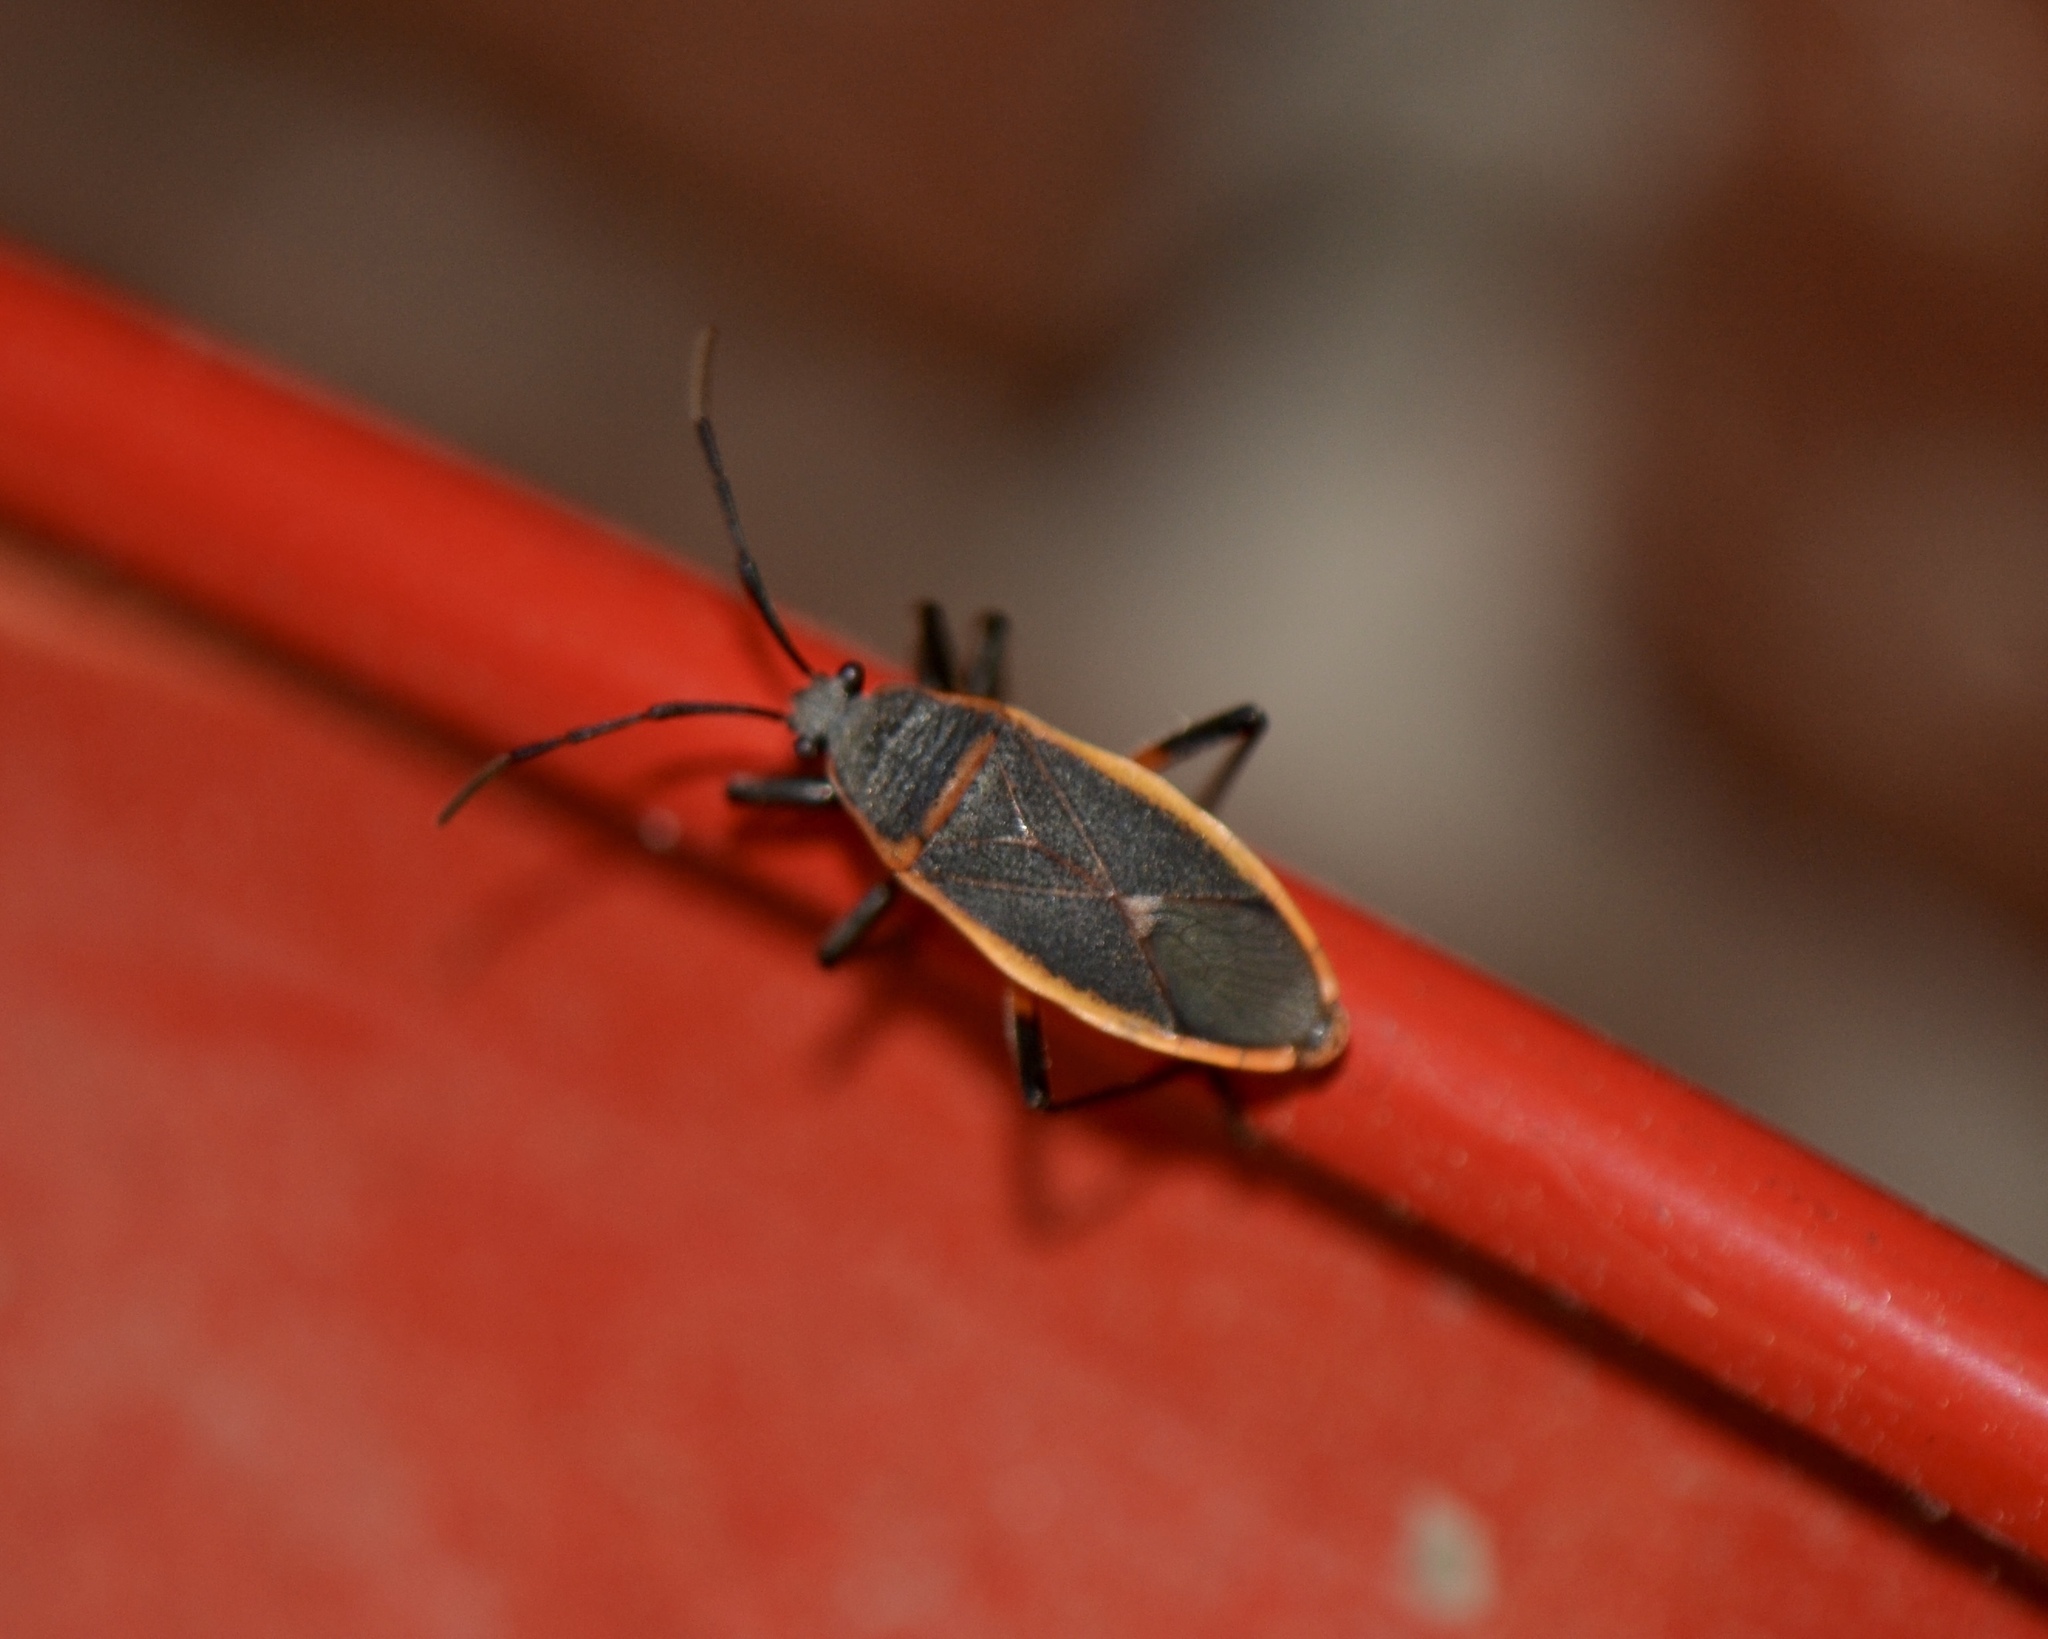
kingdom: Animalia
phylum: Arthropoda
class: Insecta
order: Hemiptera
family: Largidae
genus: Largus
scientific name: Largus succinctus
